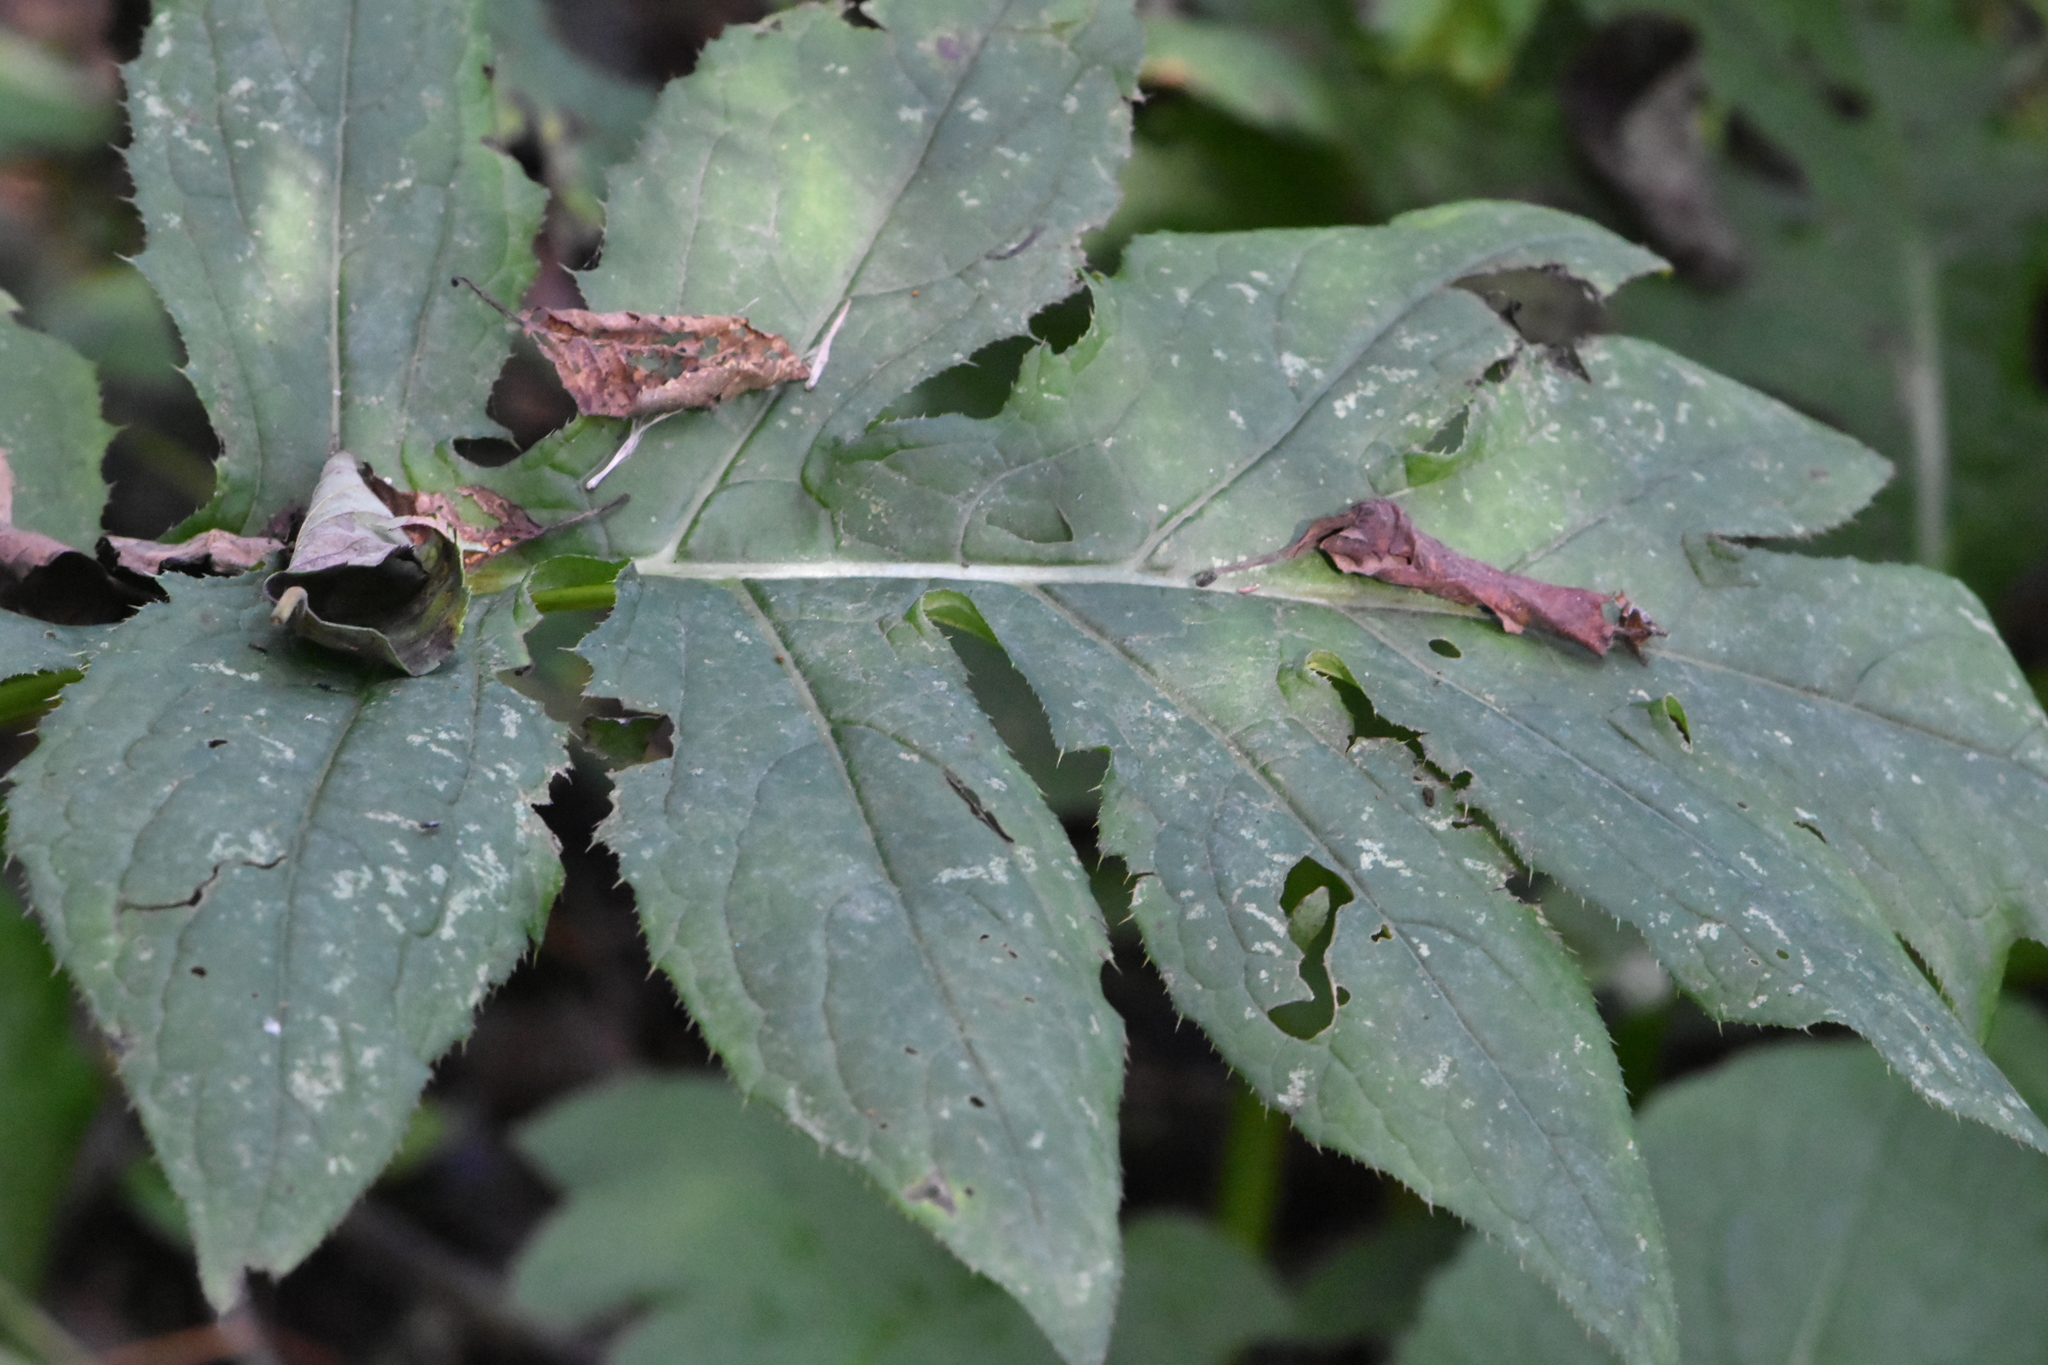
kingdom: Plantae
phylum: Tracheophyta
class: Magnoliopsida
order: Asterales
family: Asteraceae
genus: Cirsium
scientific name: Cirsium oleraceum
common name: Cabbage thistle
